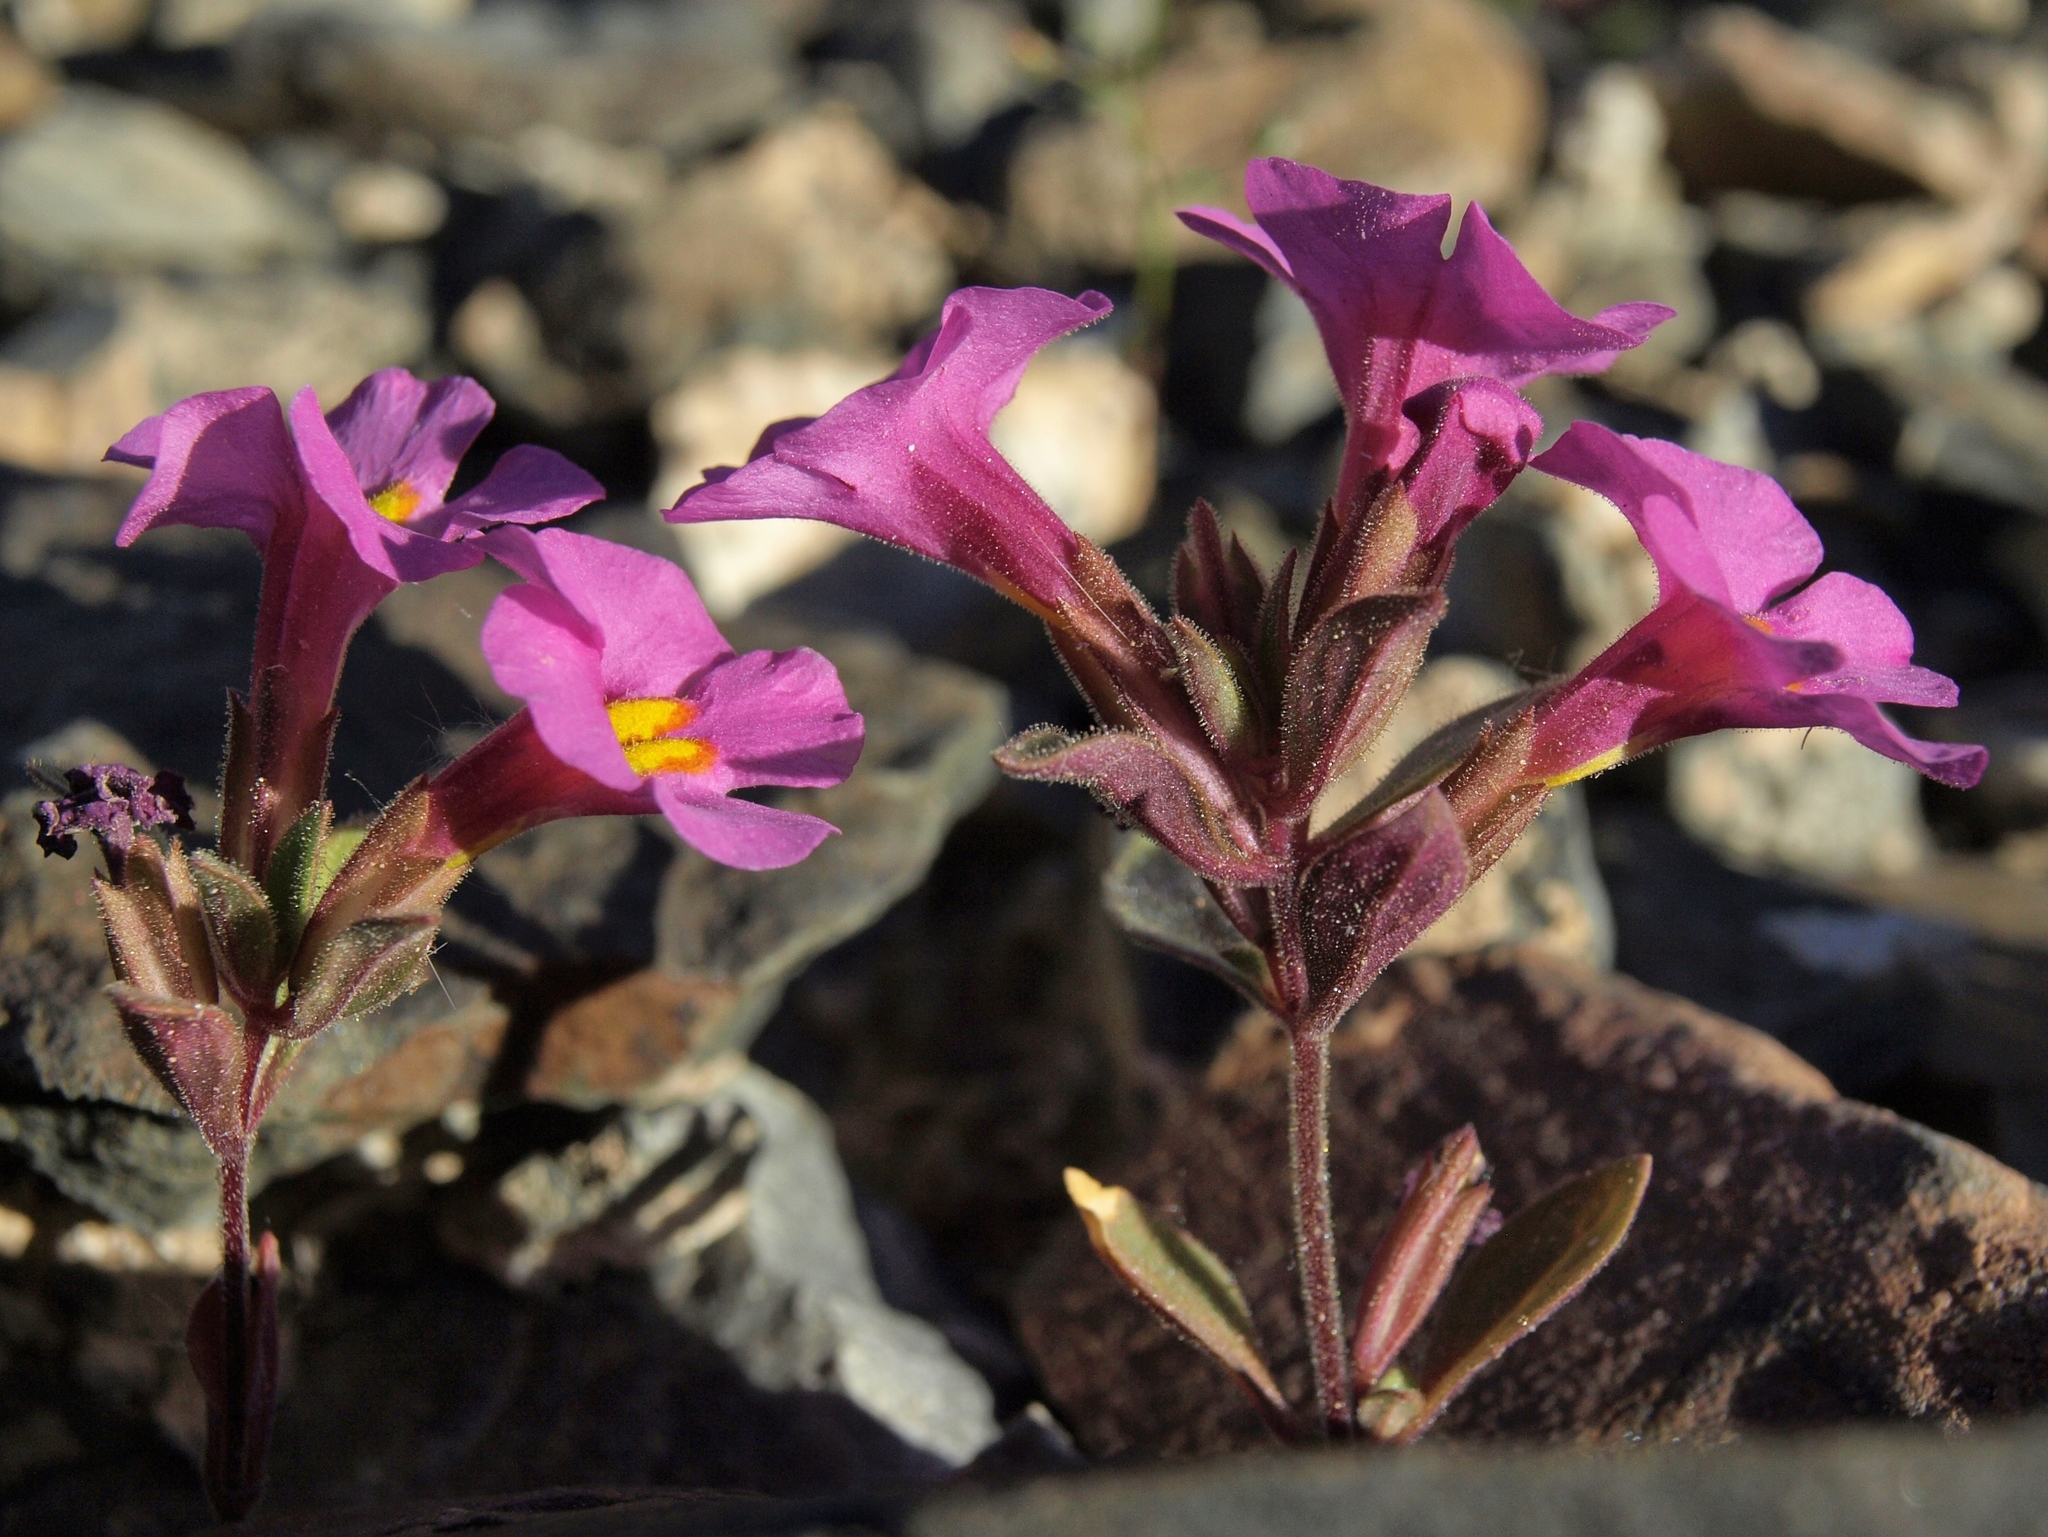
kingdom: Plantae
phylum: Tracheophyta
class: Magnoliopsida
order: Lamiales
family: Phrymaceae
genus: Diplacus
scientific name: Diplacus parryi
